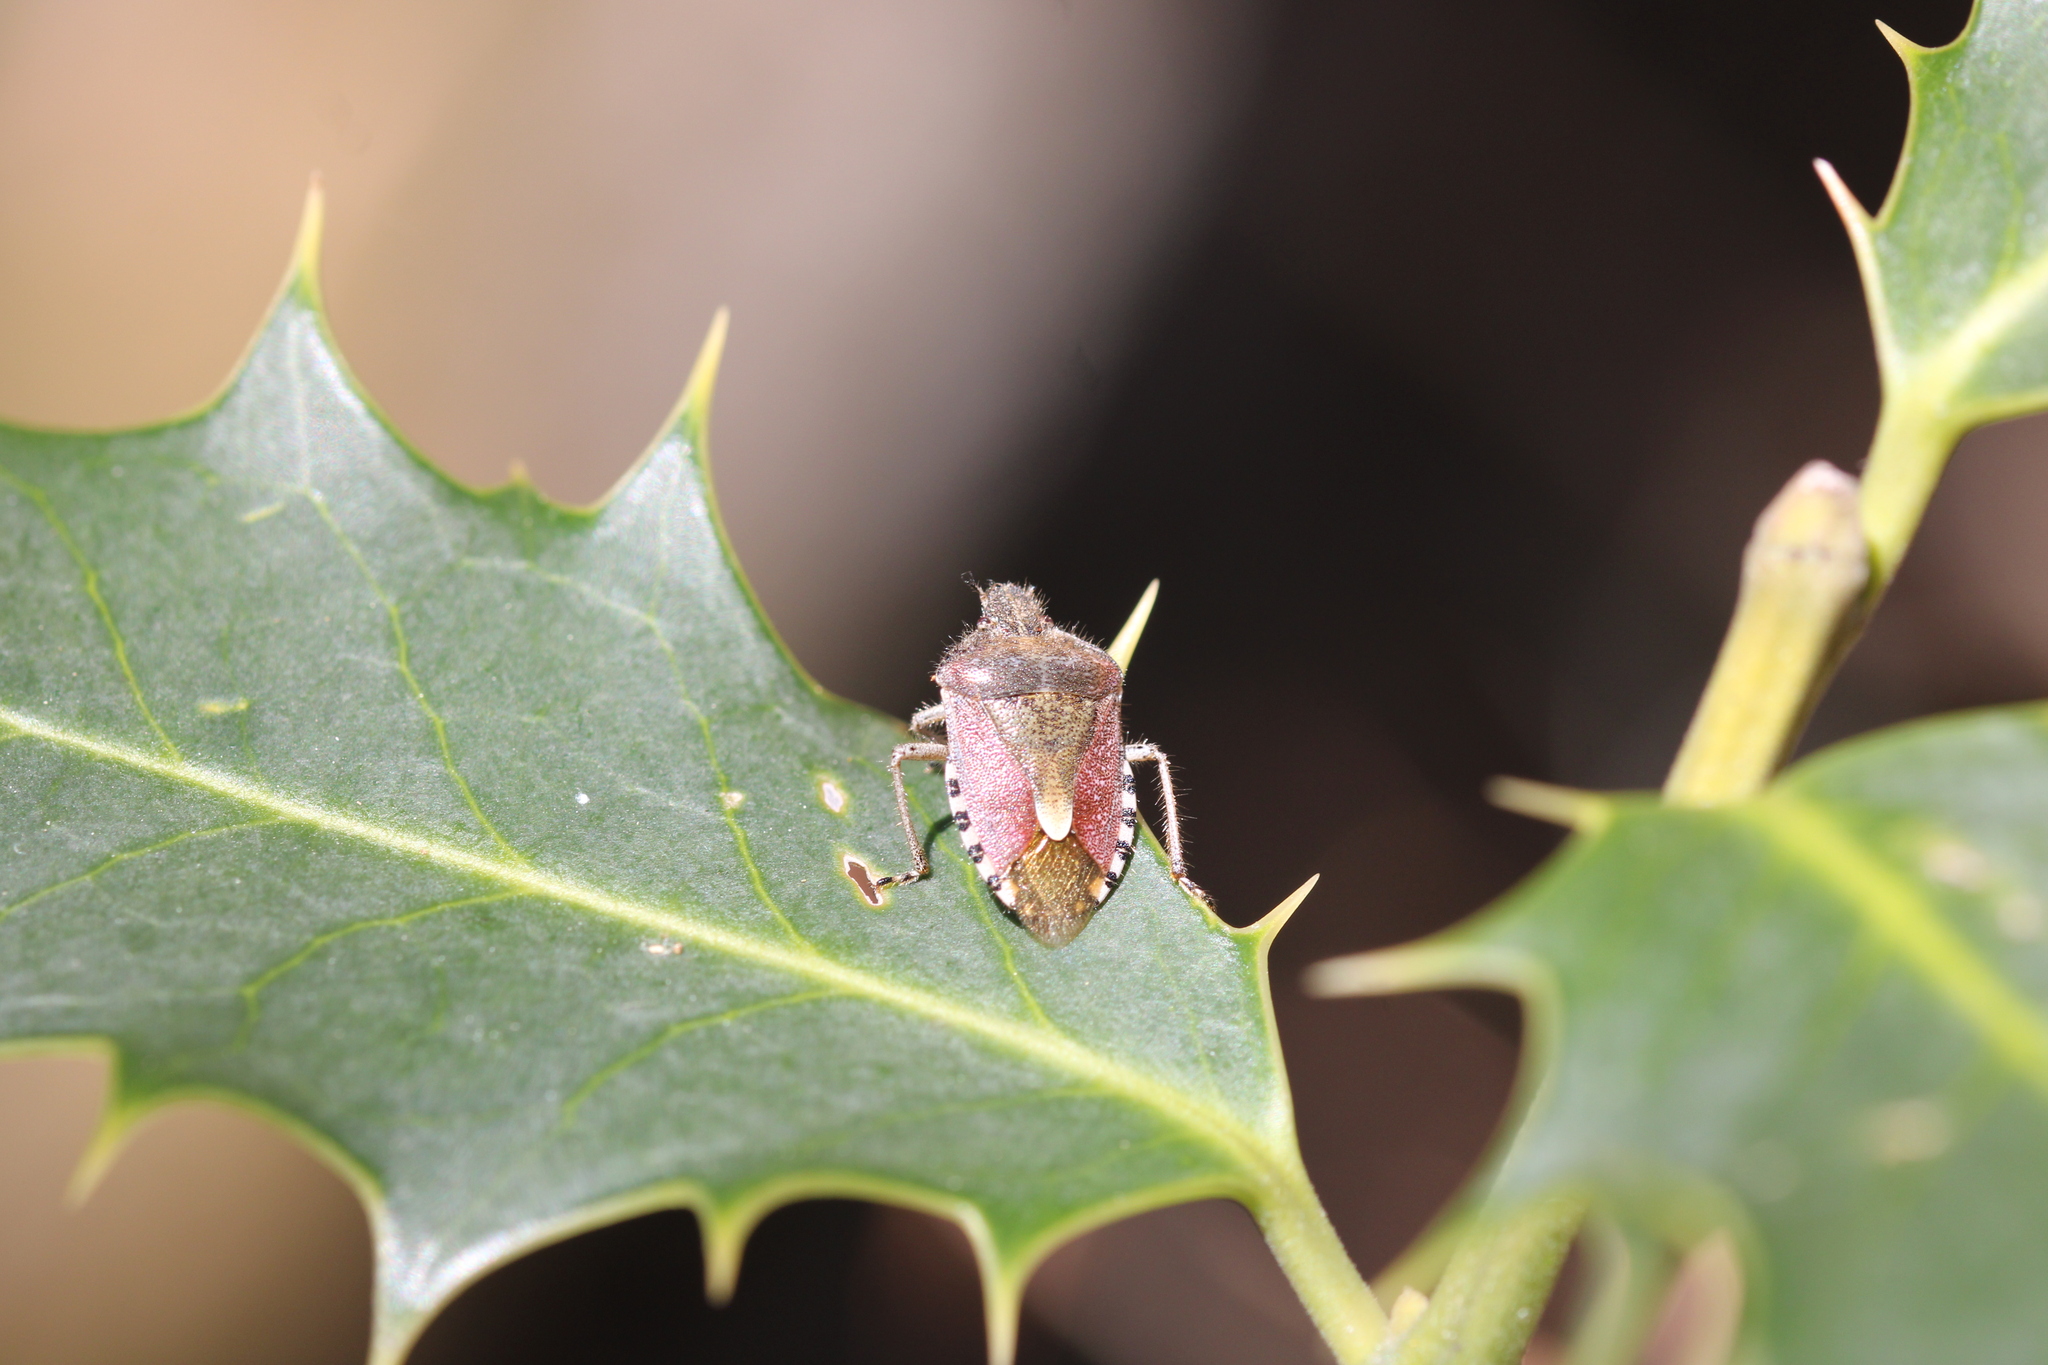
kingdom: Animalia
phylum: Arthropoda
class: Insecta
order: Hemiptera
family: Pentatomidae
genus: Dolycoris
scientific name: Dolycoris baccarum
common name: Sloe bug
